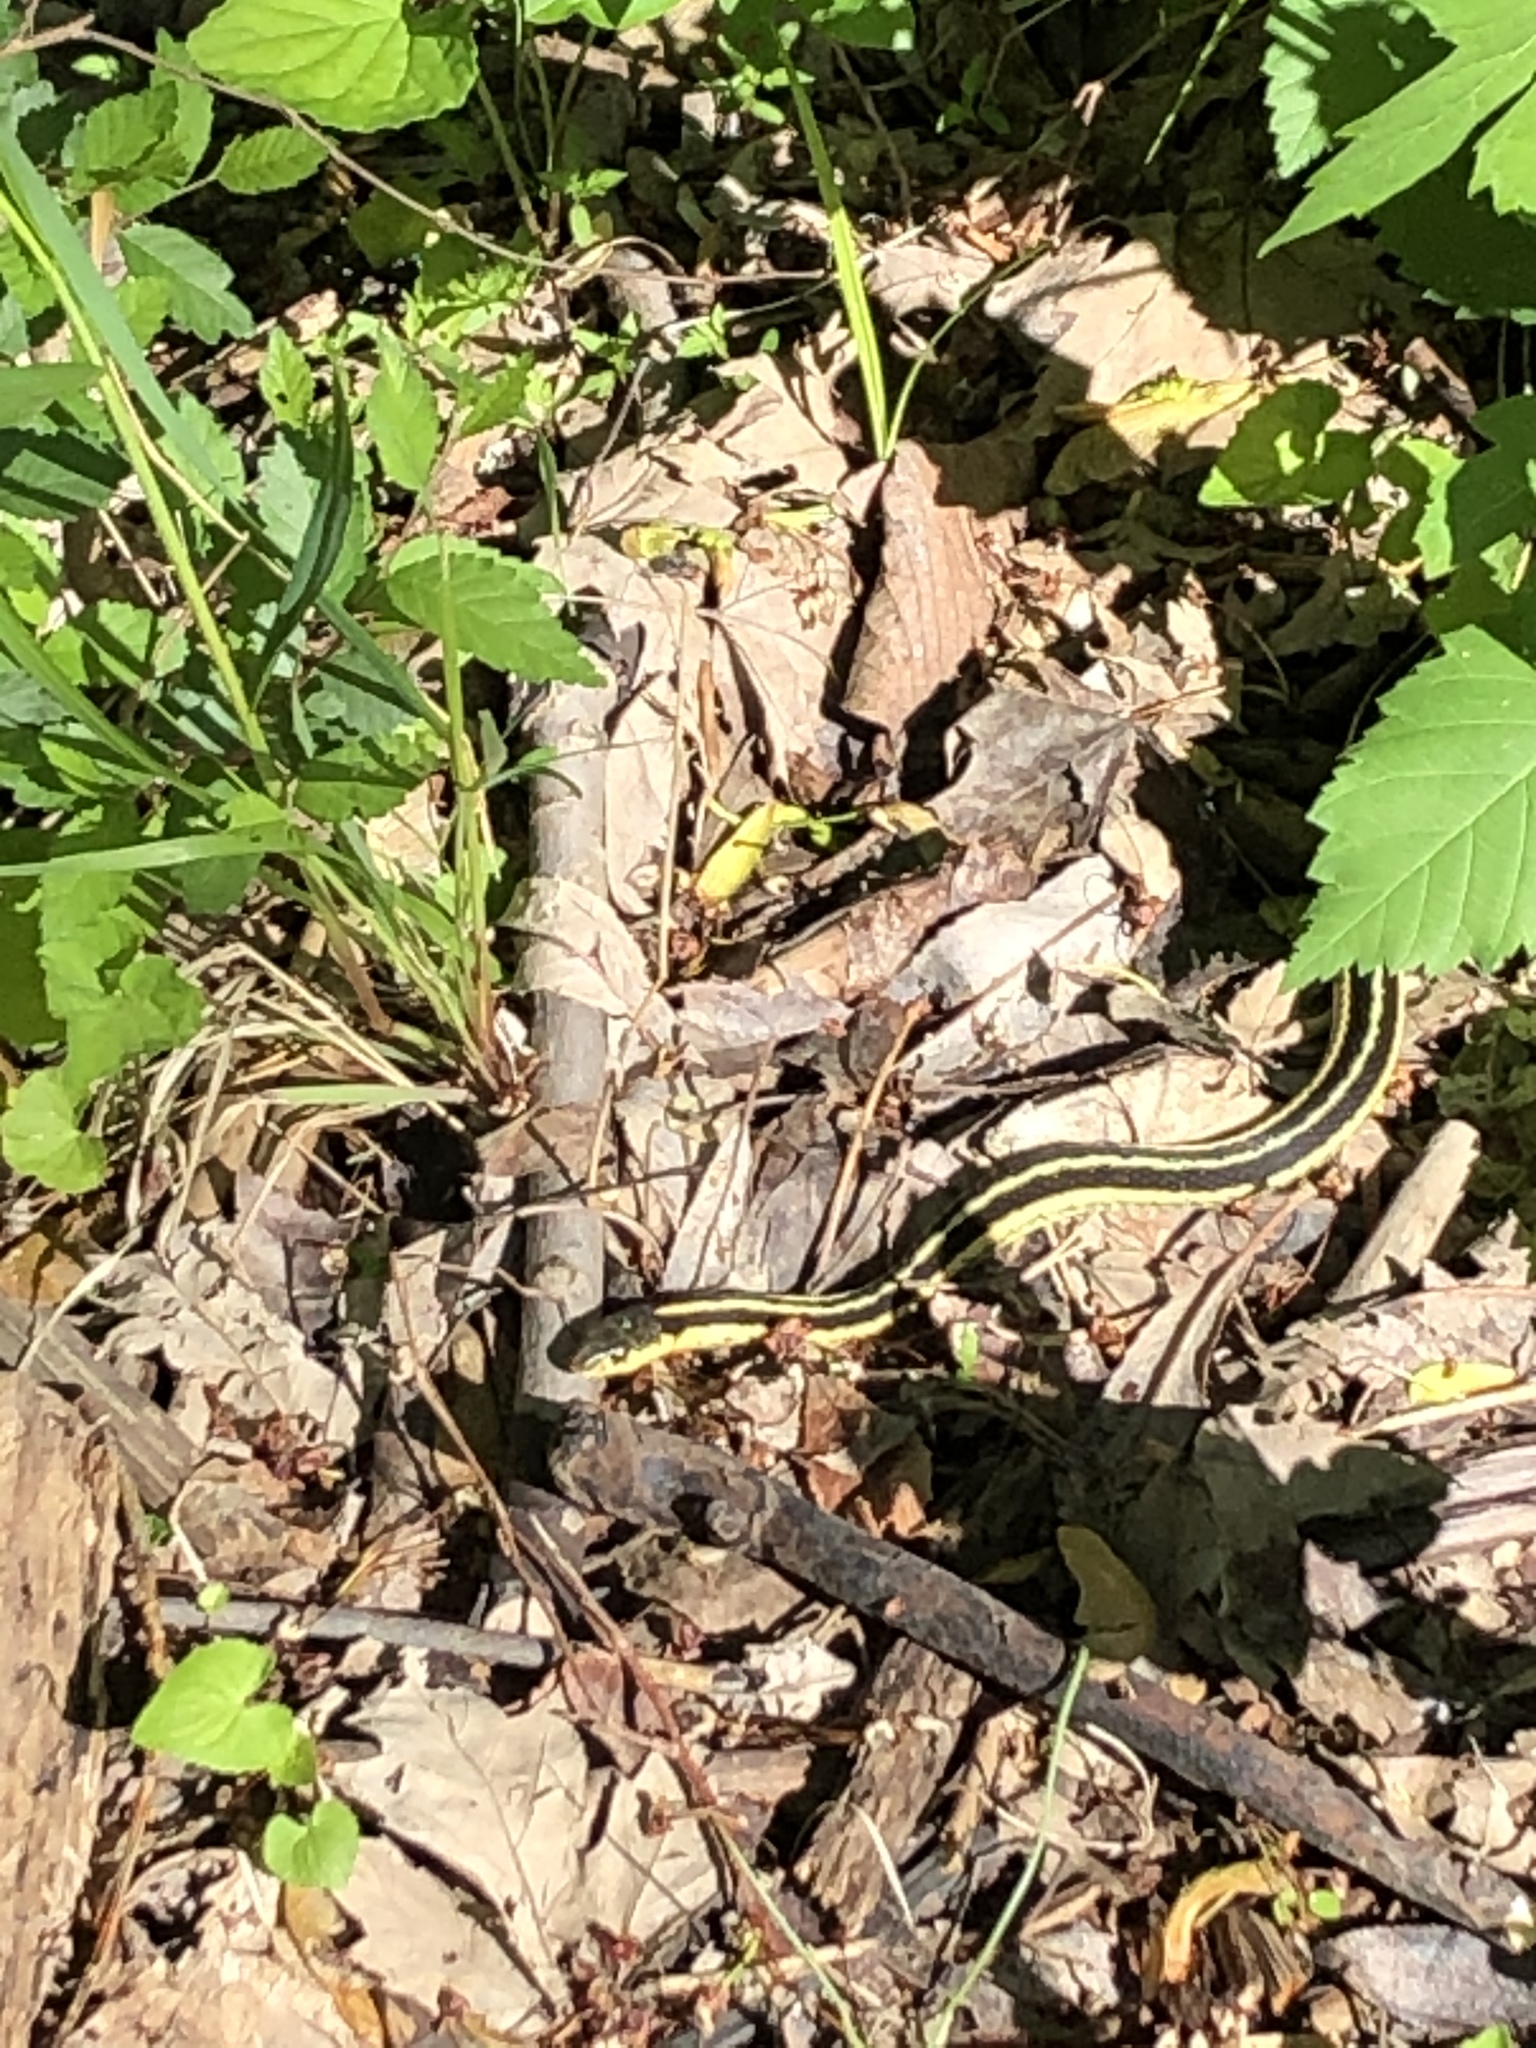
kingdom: Animalia
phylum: Chordata
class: Squamata
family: Colubridae
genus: Thamnophis
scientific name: Thamnophis sirtalis
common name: Common garter snake
